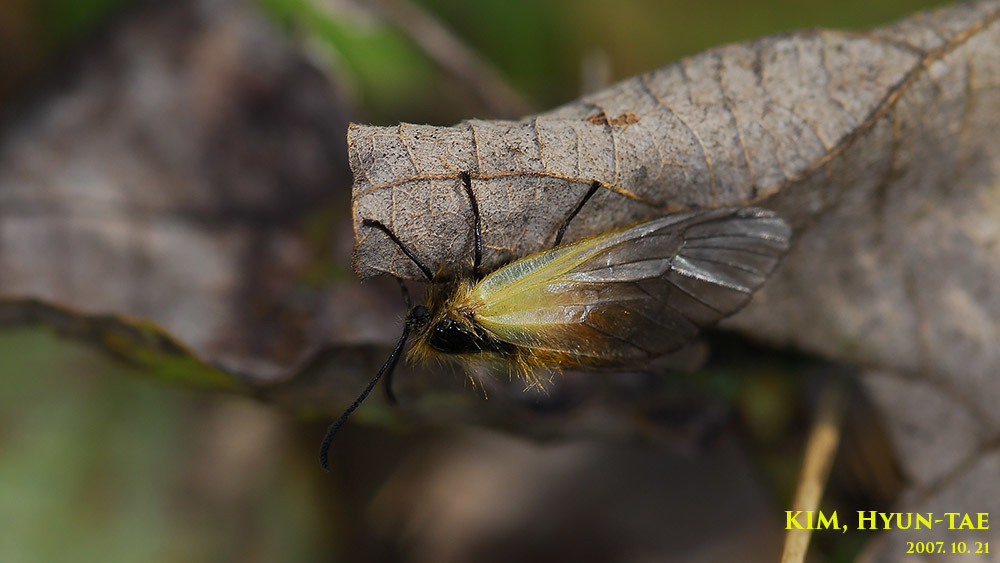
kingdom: Animalia
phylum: Arthropoda
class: Insecta
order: Lepidoptera
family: Zygaenidae
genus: Sinica
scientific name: Sinica sinica
